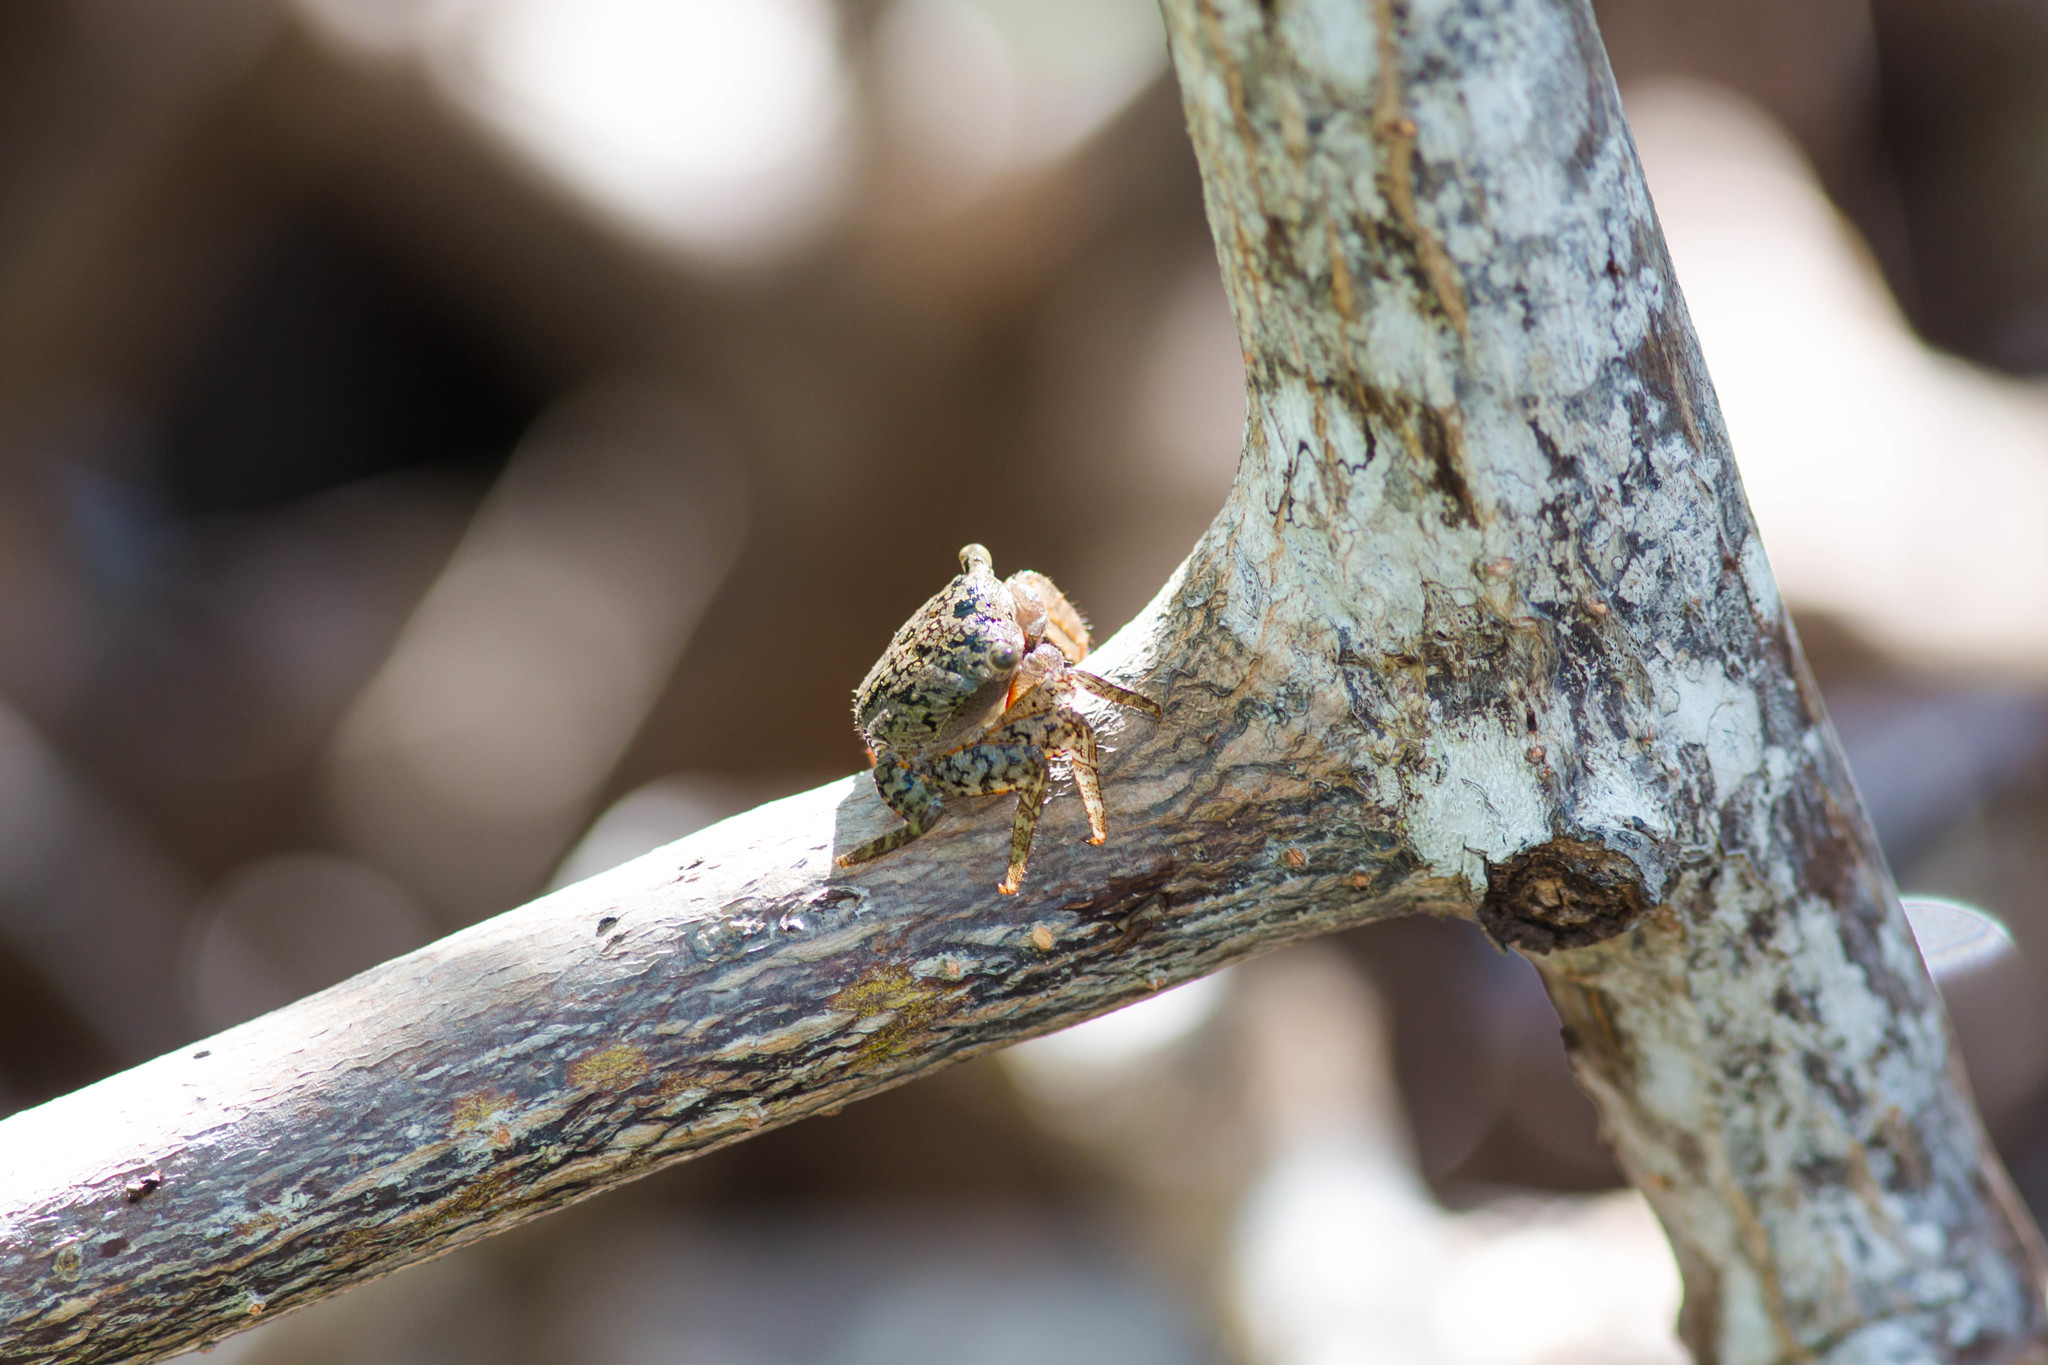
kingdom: Animalia
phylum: Arthropoda
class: Malacostraca
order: Decapoda
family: Sesarmidae
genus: Aratus
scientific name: Aratus pisonii
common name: Mangrove crab
